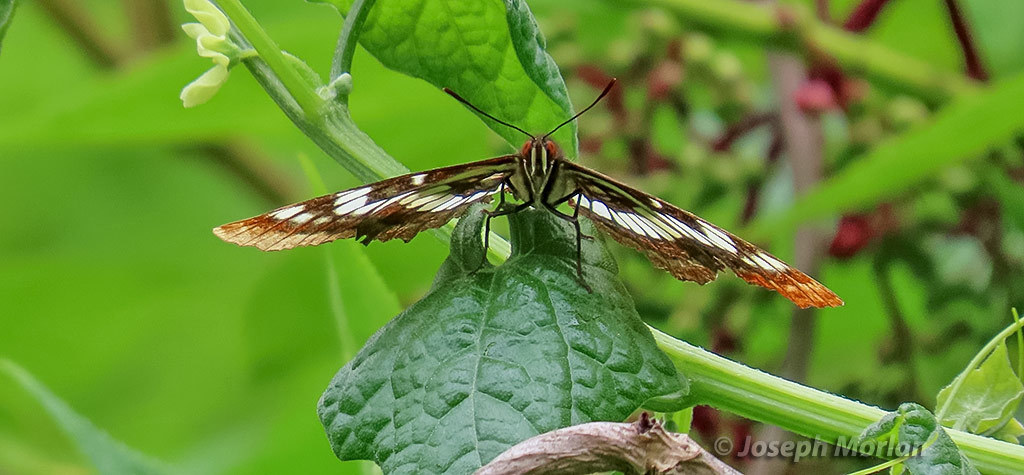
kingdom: Animalia
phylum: Arthropoda
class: Insecta
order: Lepidoptera
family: Nymphalidae
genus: Limenitis
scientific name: Limenitis lorquini
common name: Lorquin's admiral
